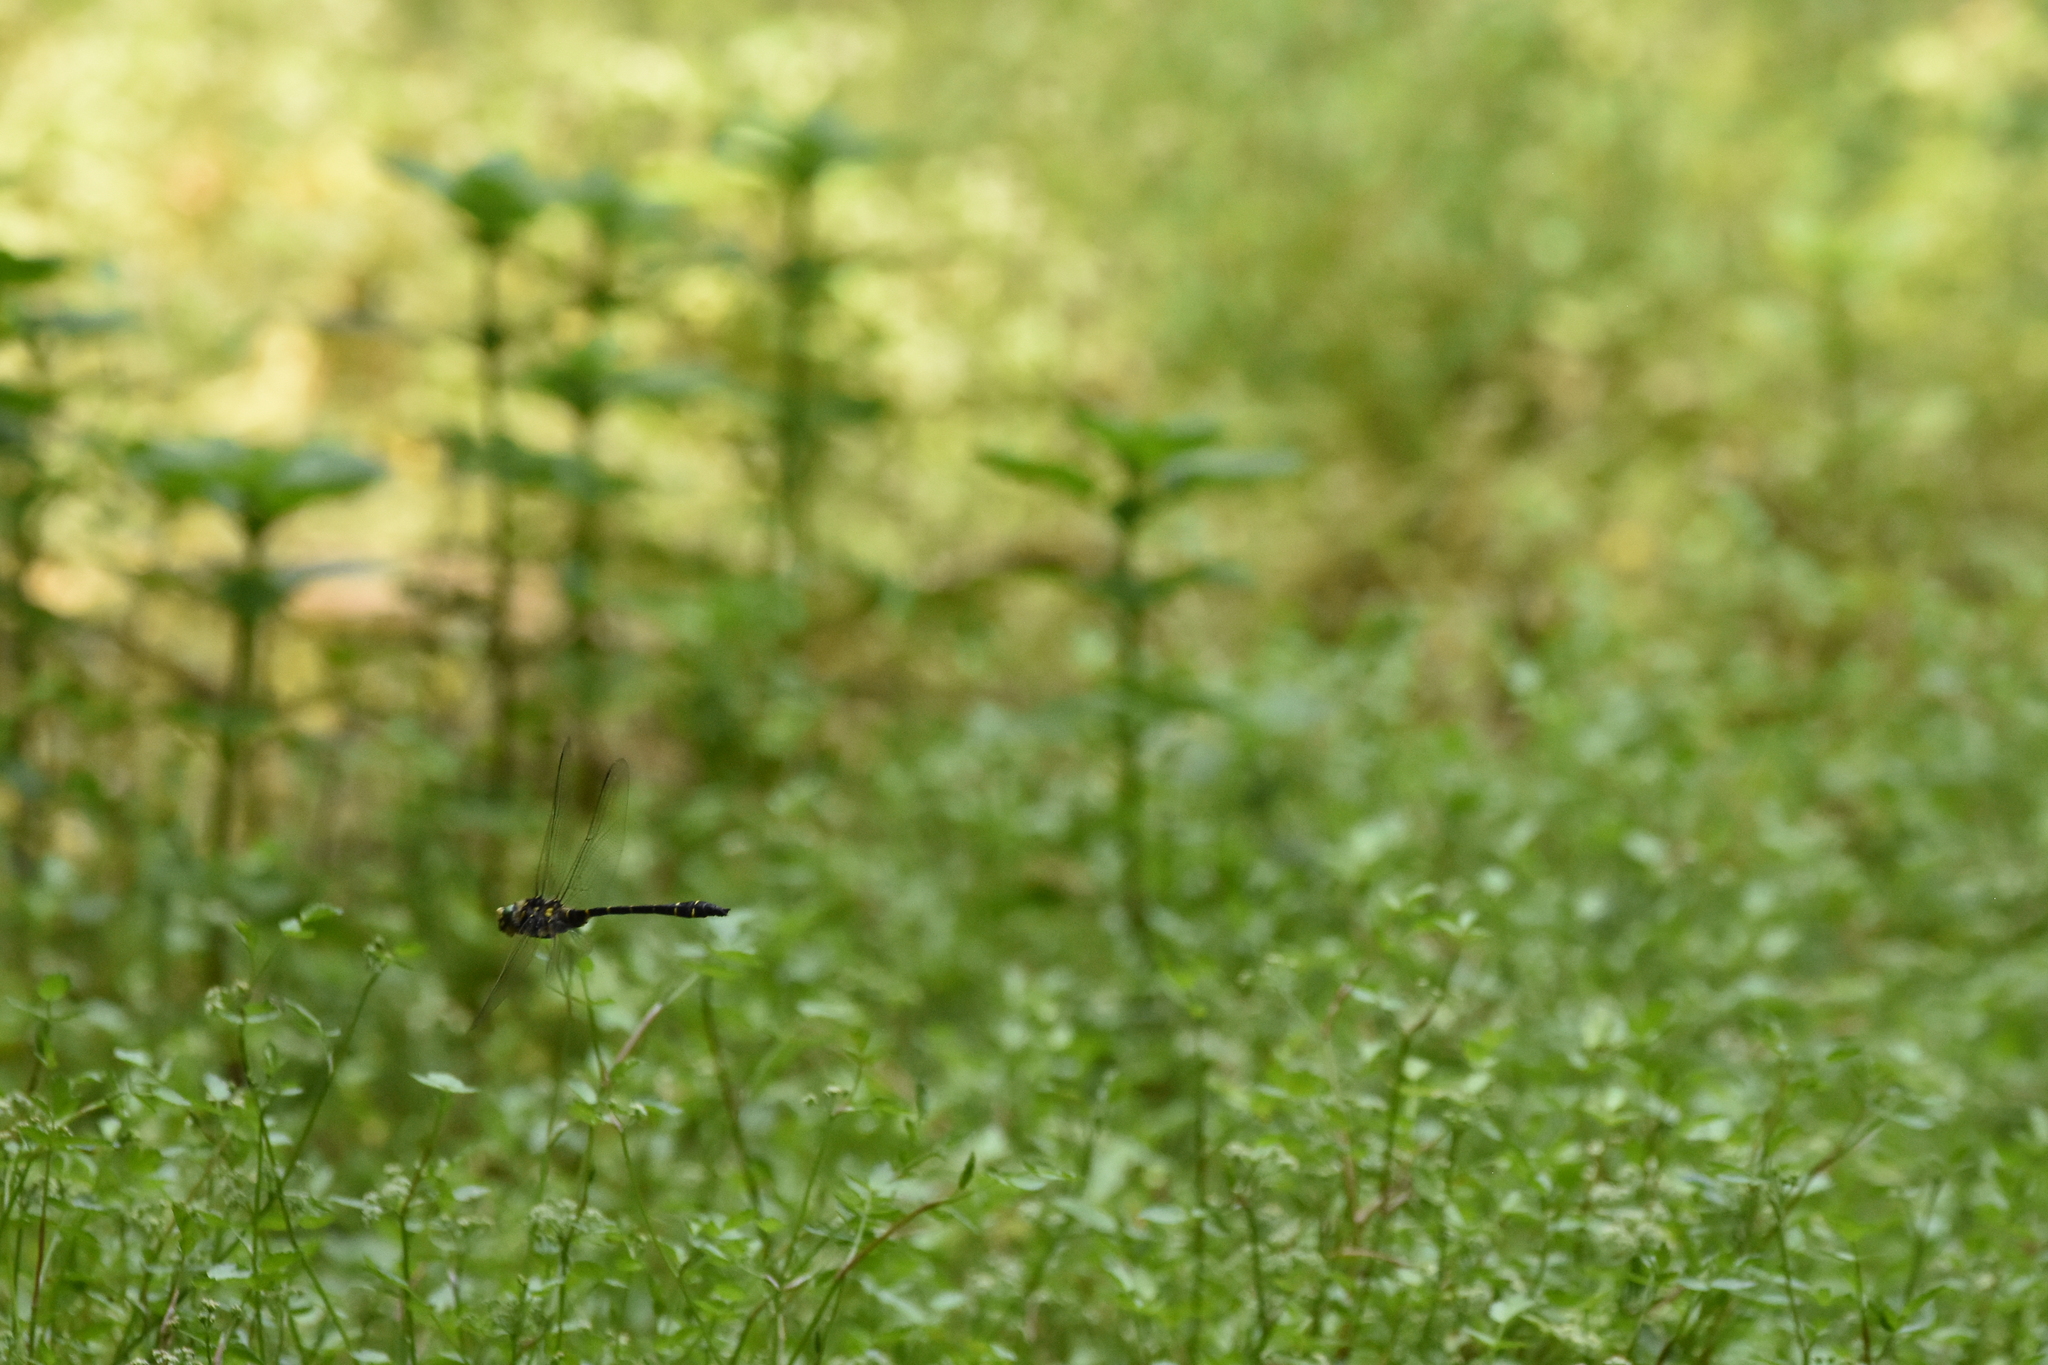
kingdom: Animalia
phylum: Arthropoda
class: Insecta
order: Odonata
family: Cordulegastridae
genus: Cordulegaster
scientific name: Cordulegaster bidentata
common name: Sombre goldenring
